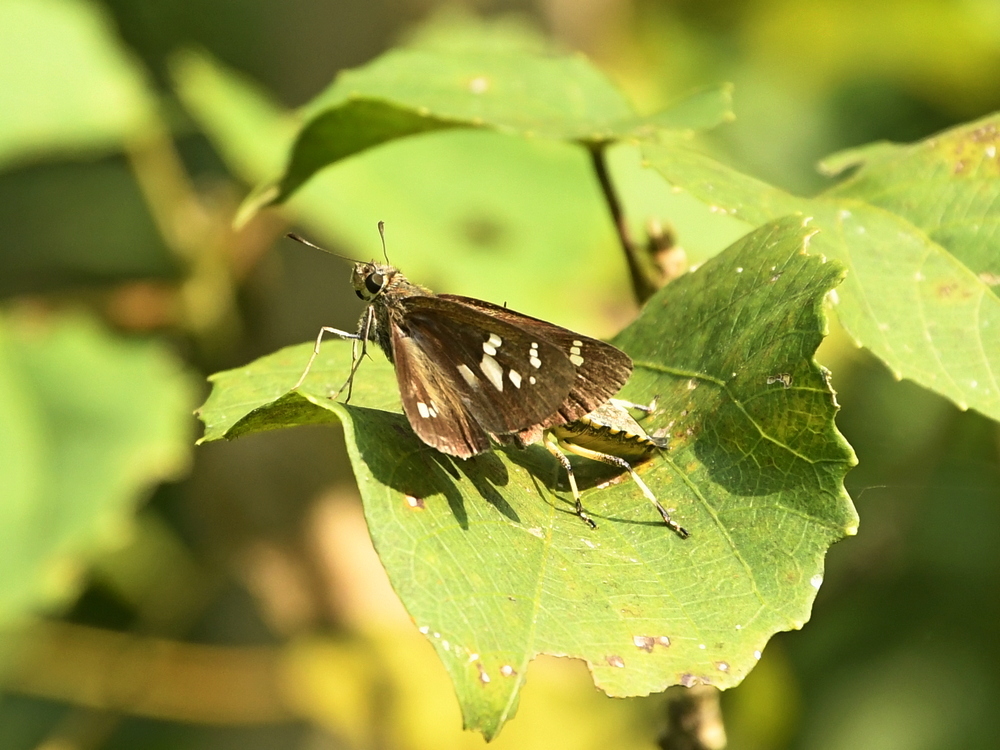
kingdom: Animalia
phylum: Arthropoda
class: Insecta
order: Lepidoptera
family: Hesperiidae
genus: Borbo
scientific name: Borbo cinnara
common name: Formosan swift
